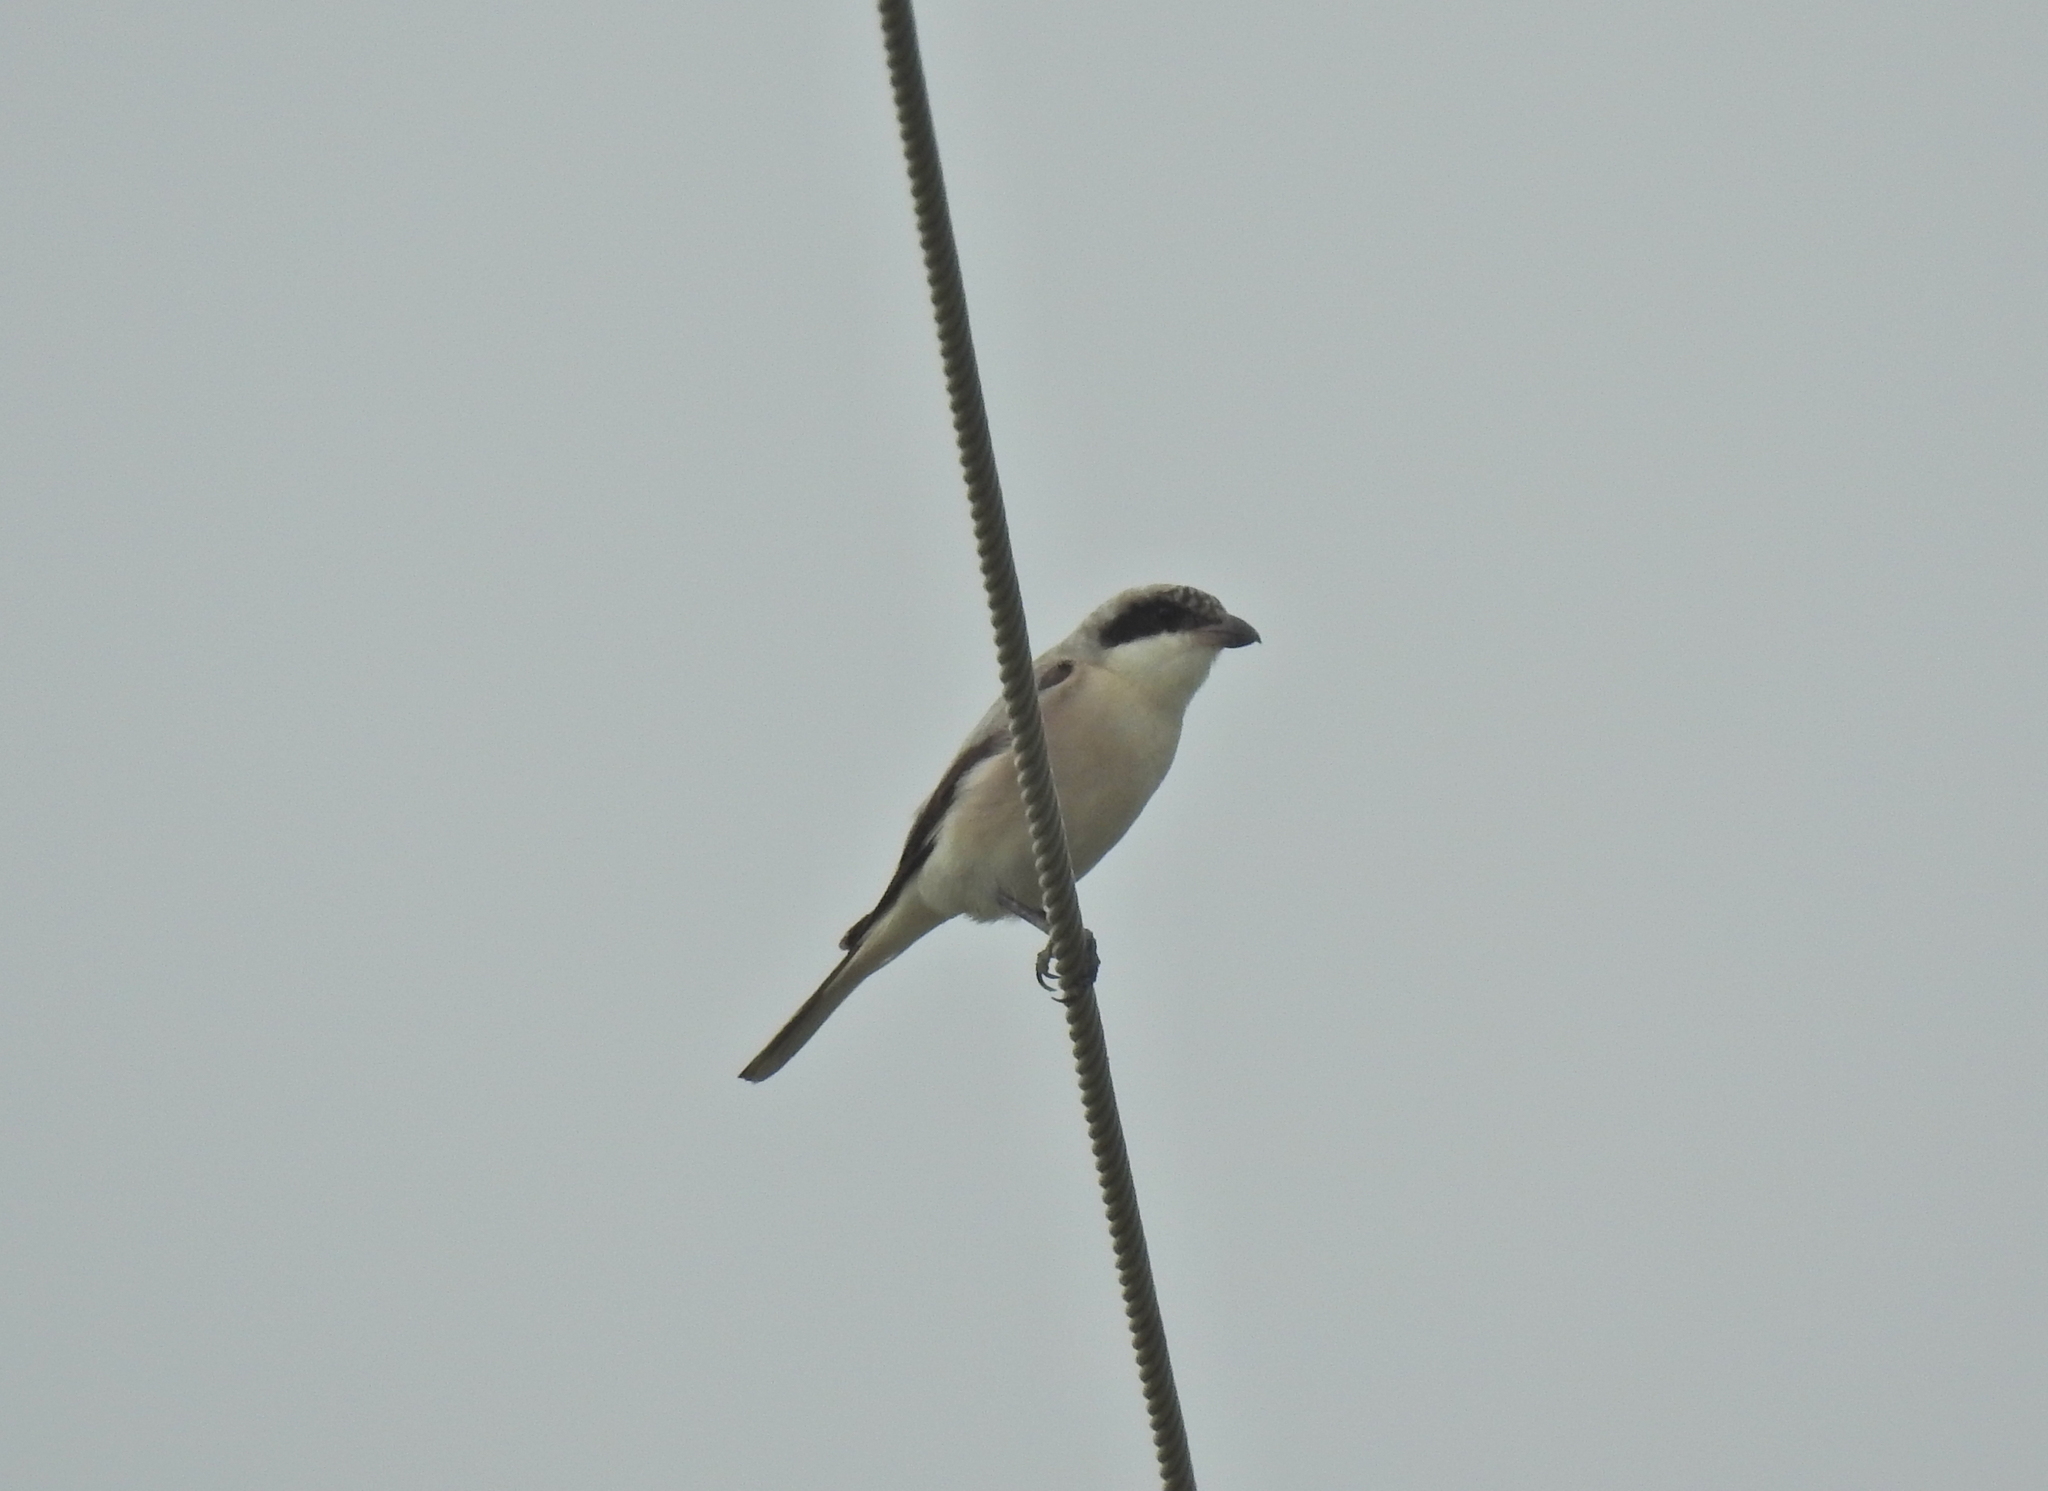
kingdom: Animalia
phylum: Chordata
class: Aves
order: Passeriformes
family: Laniidae
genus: Lanius
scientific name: Lanius minor
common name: Lesser grey shrike
